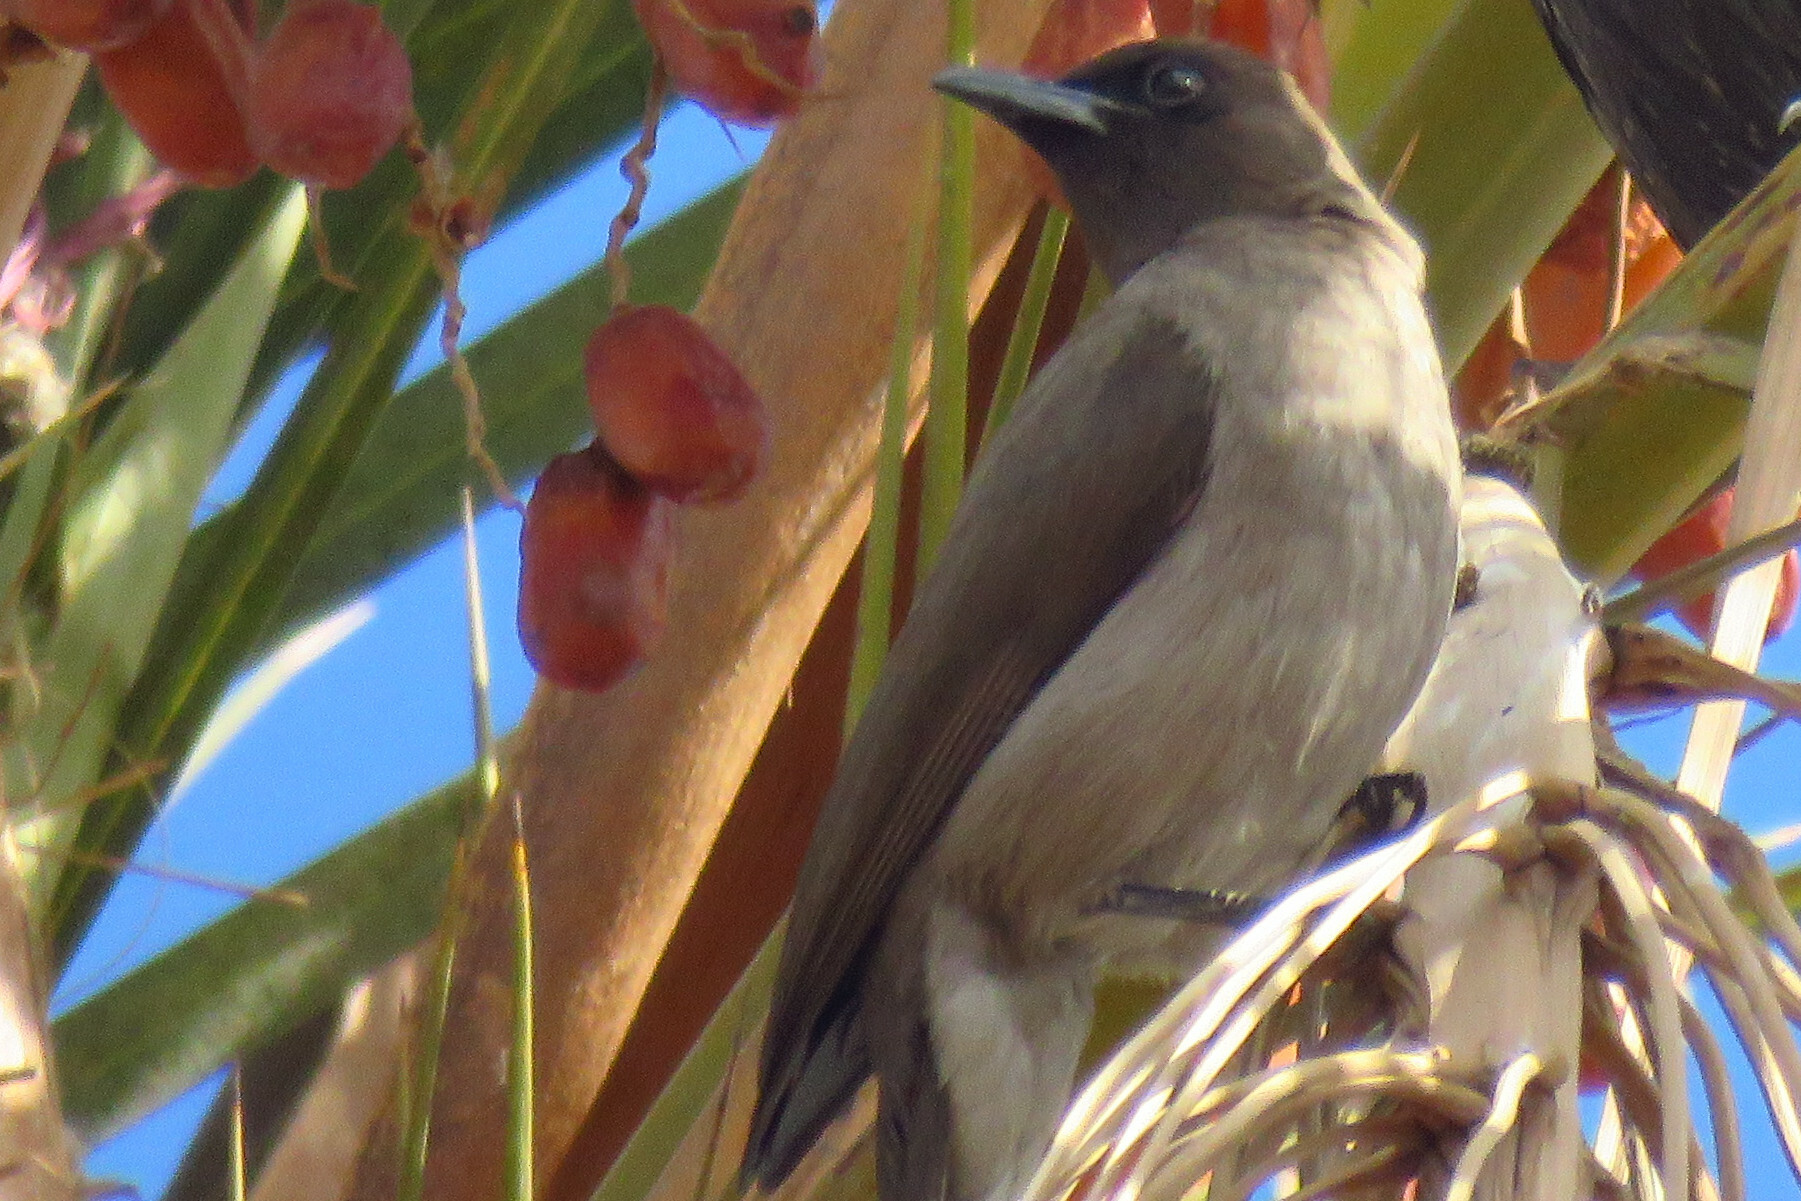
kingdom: Animalia
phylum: Chordata
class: Aves
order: Passeriformes
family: Pycnonotidae
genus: Pycnonotus
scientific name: Pycnonotus barbatus
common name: Common bulbul
